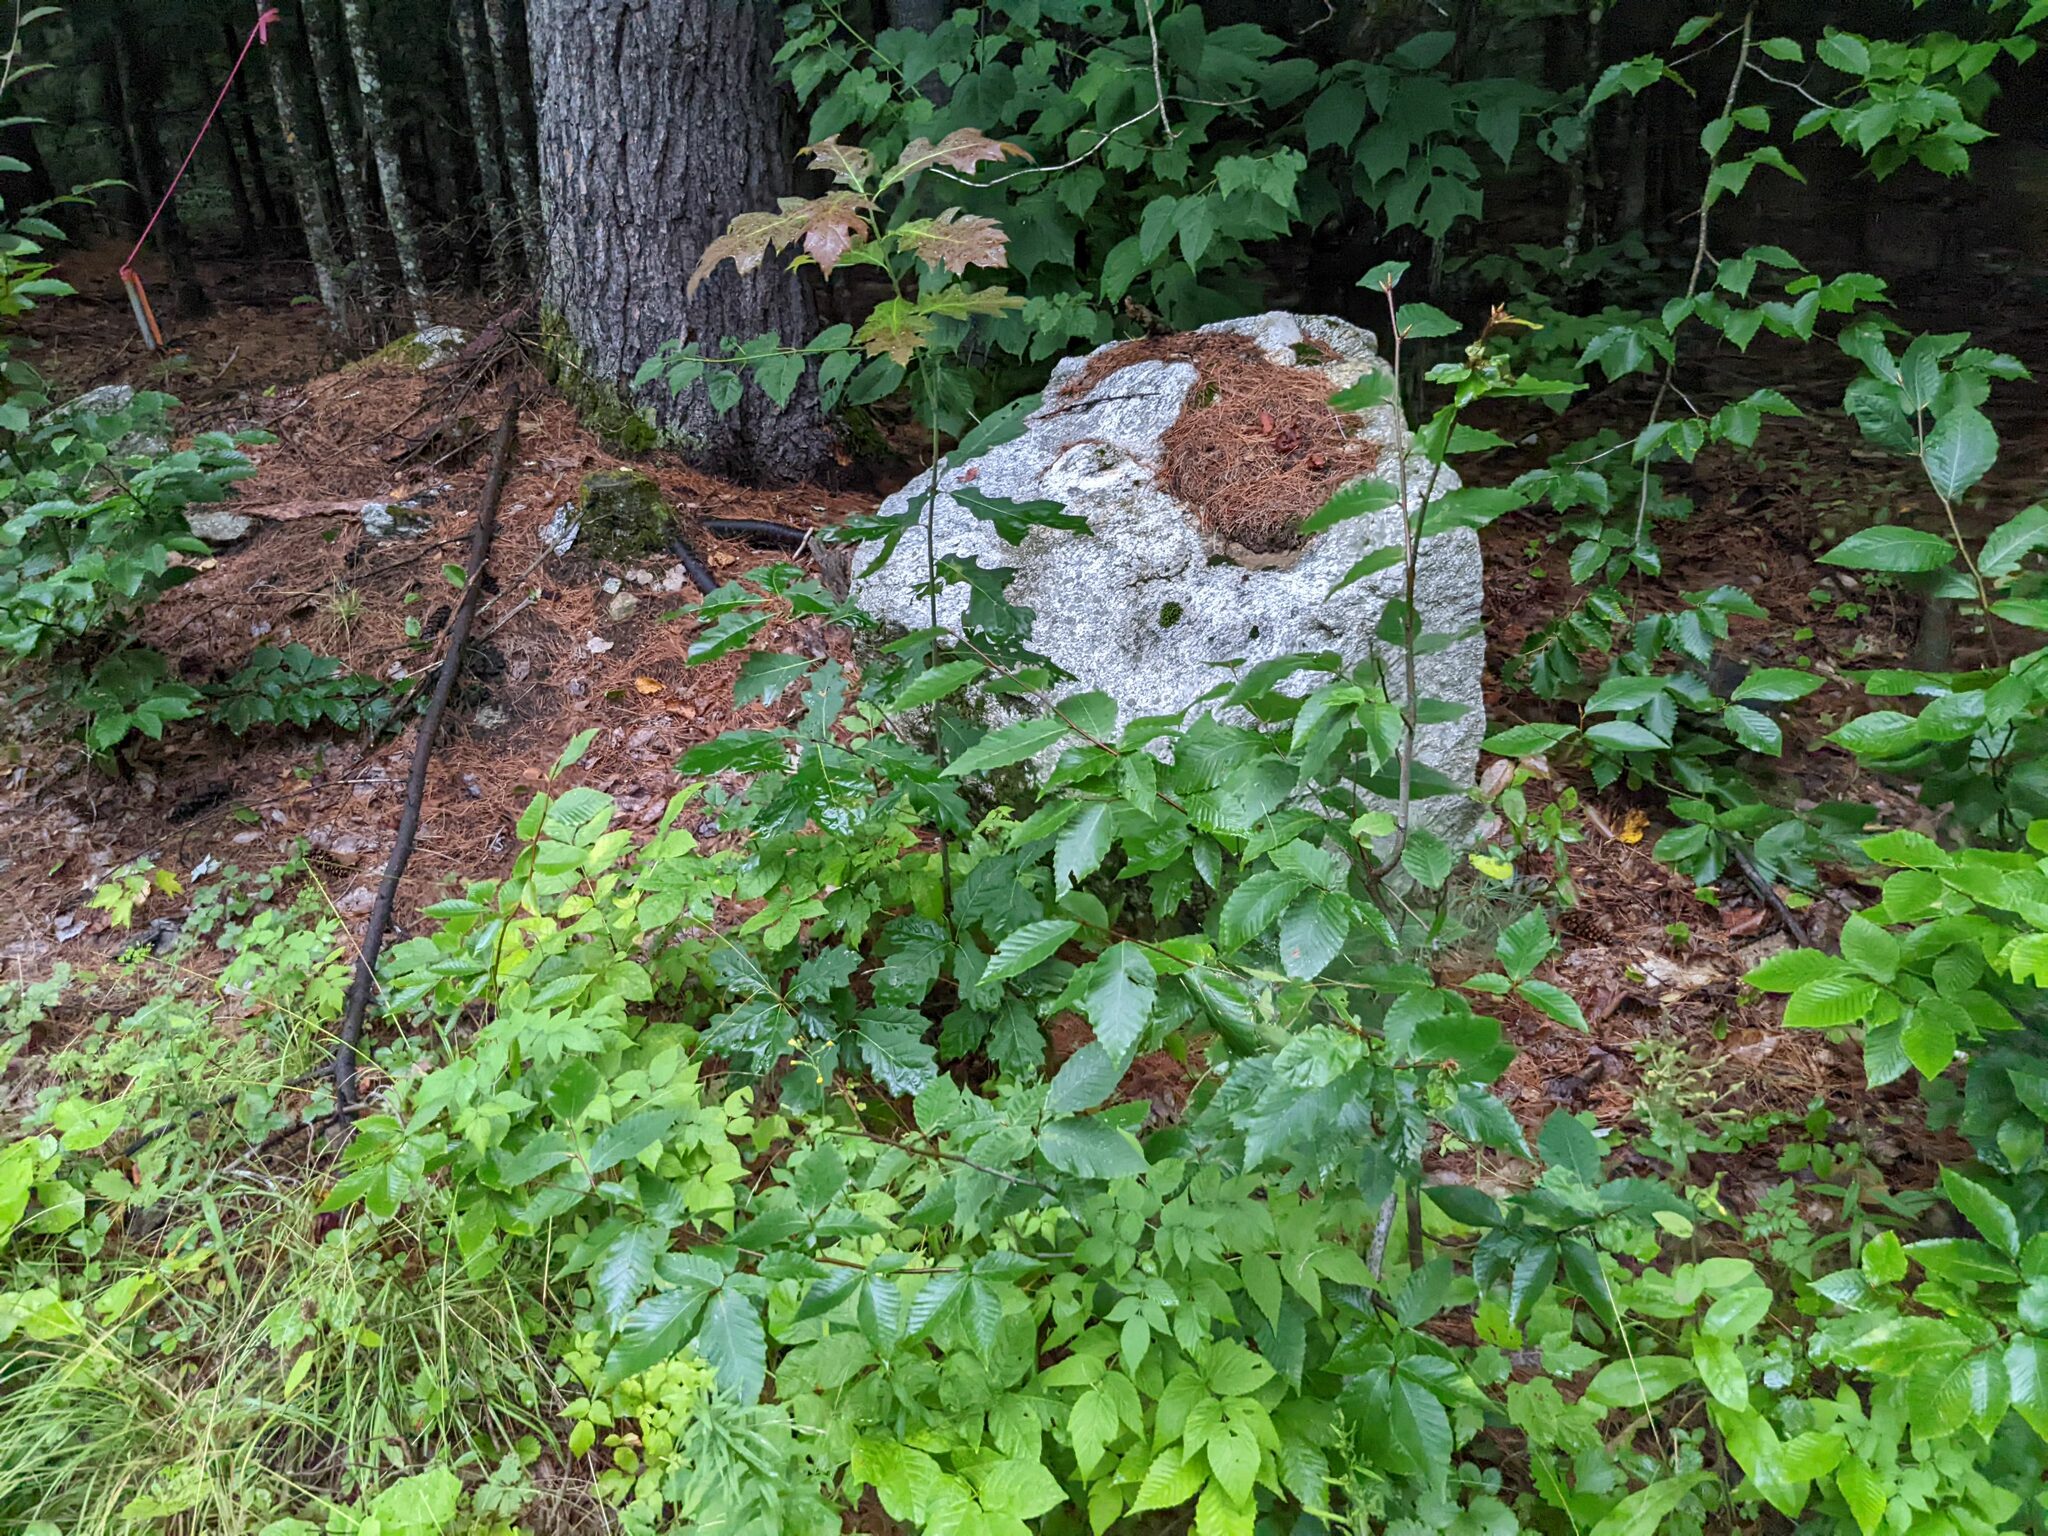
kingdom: Plantae
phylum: Tracheophyta
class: Magnoliopsida
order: Fagales
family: Fagaceae
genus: Fagus
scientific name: Fagus grandifolia
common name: American beech
